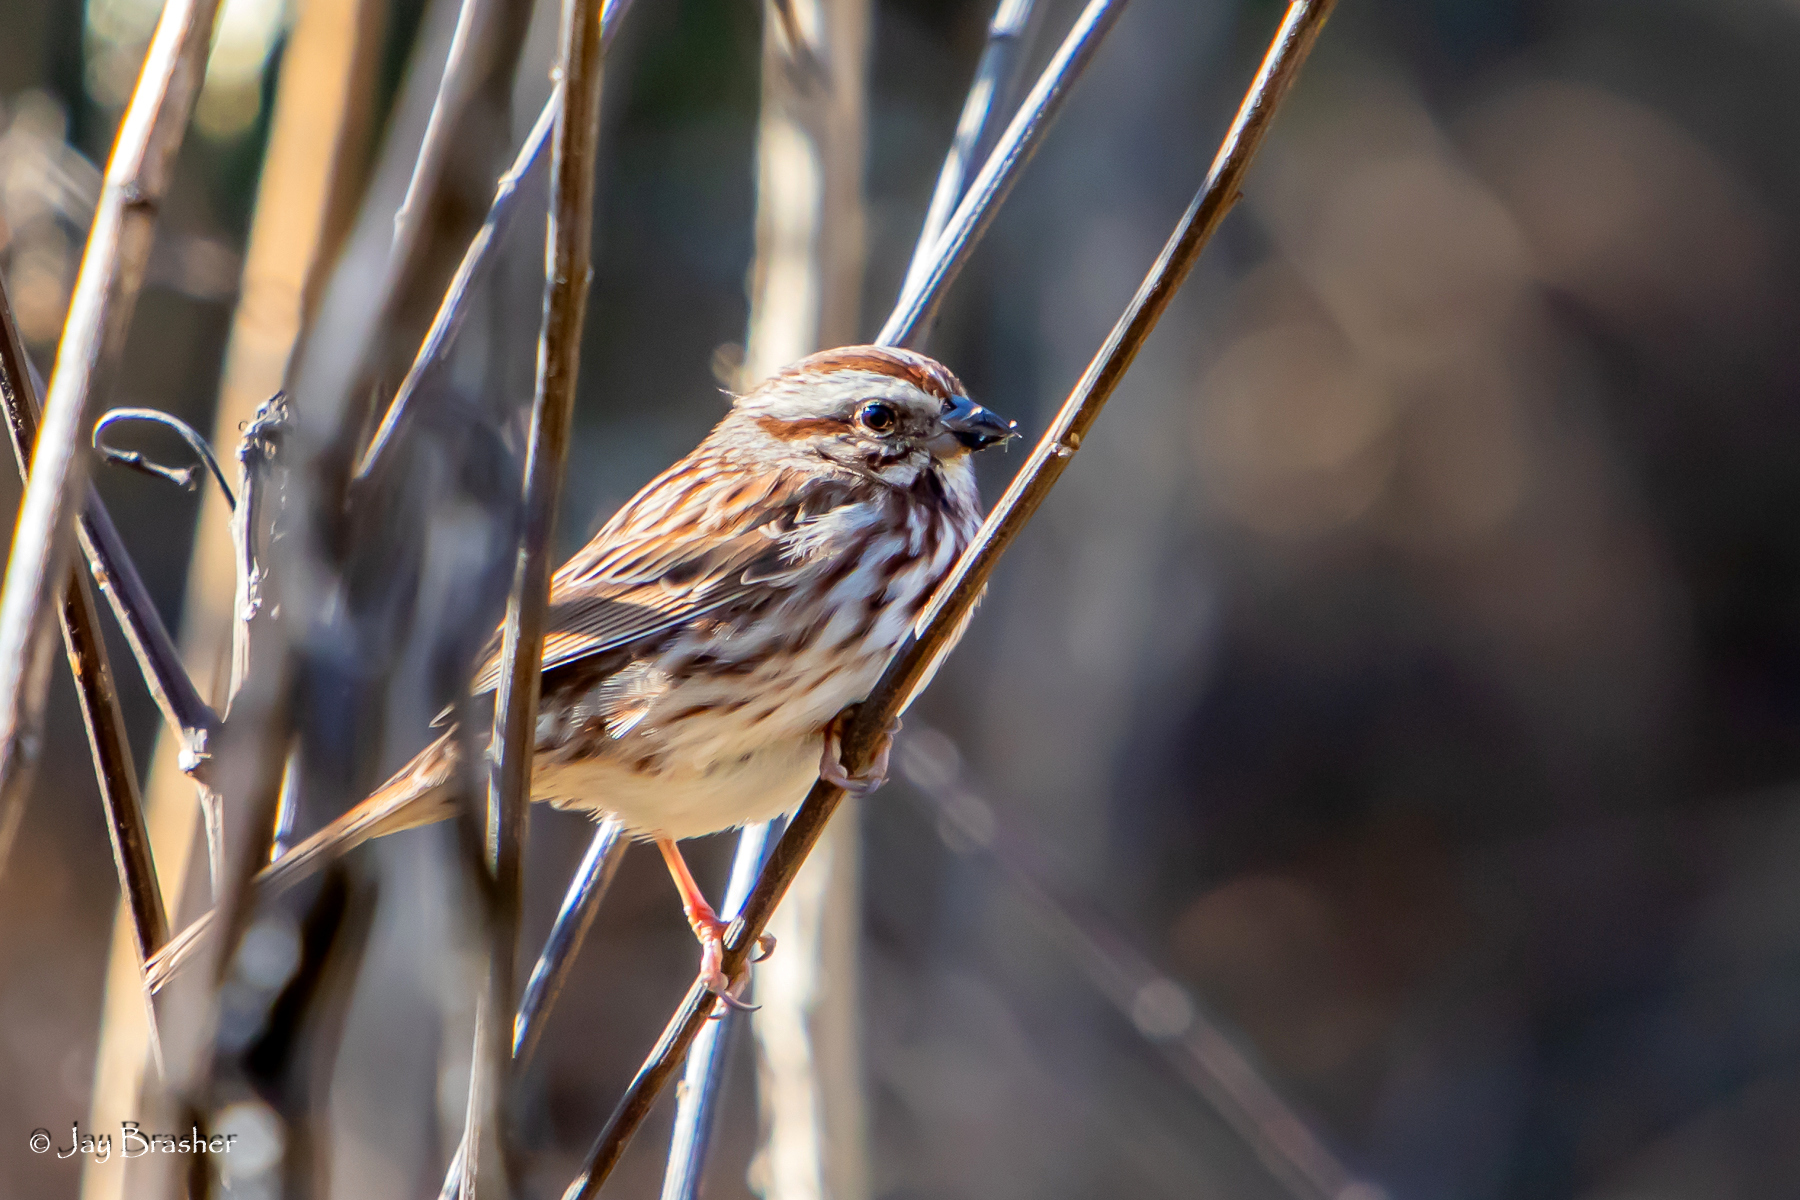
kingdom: Animalia
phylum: Chordata
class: Aves
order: Passeriformes
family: Passerellidae
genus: Melospiza
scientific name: Melospiza melodia
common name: Song sparrow
